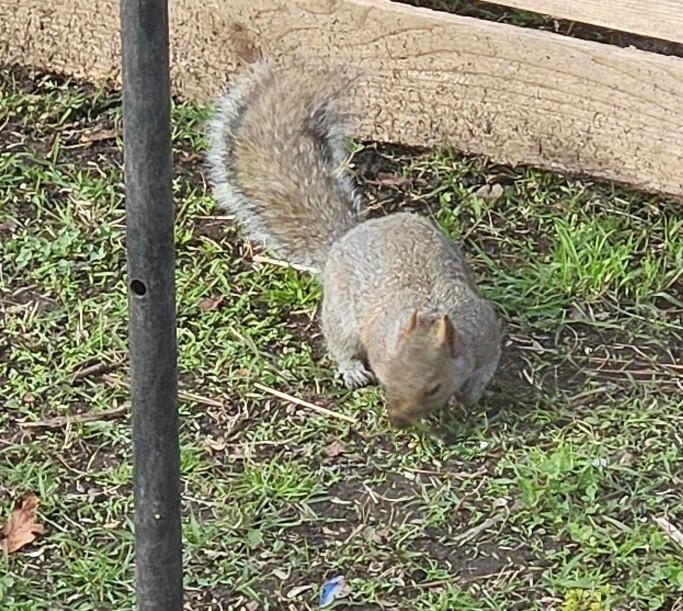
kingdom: Animalia
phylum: Chordata
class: Mammalia
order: Rodentia
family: Sciuridae
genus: Sciurus
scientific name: Sciurus carolinensis
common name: Eastern gray squirrel
